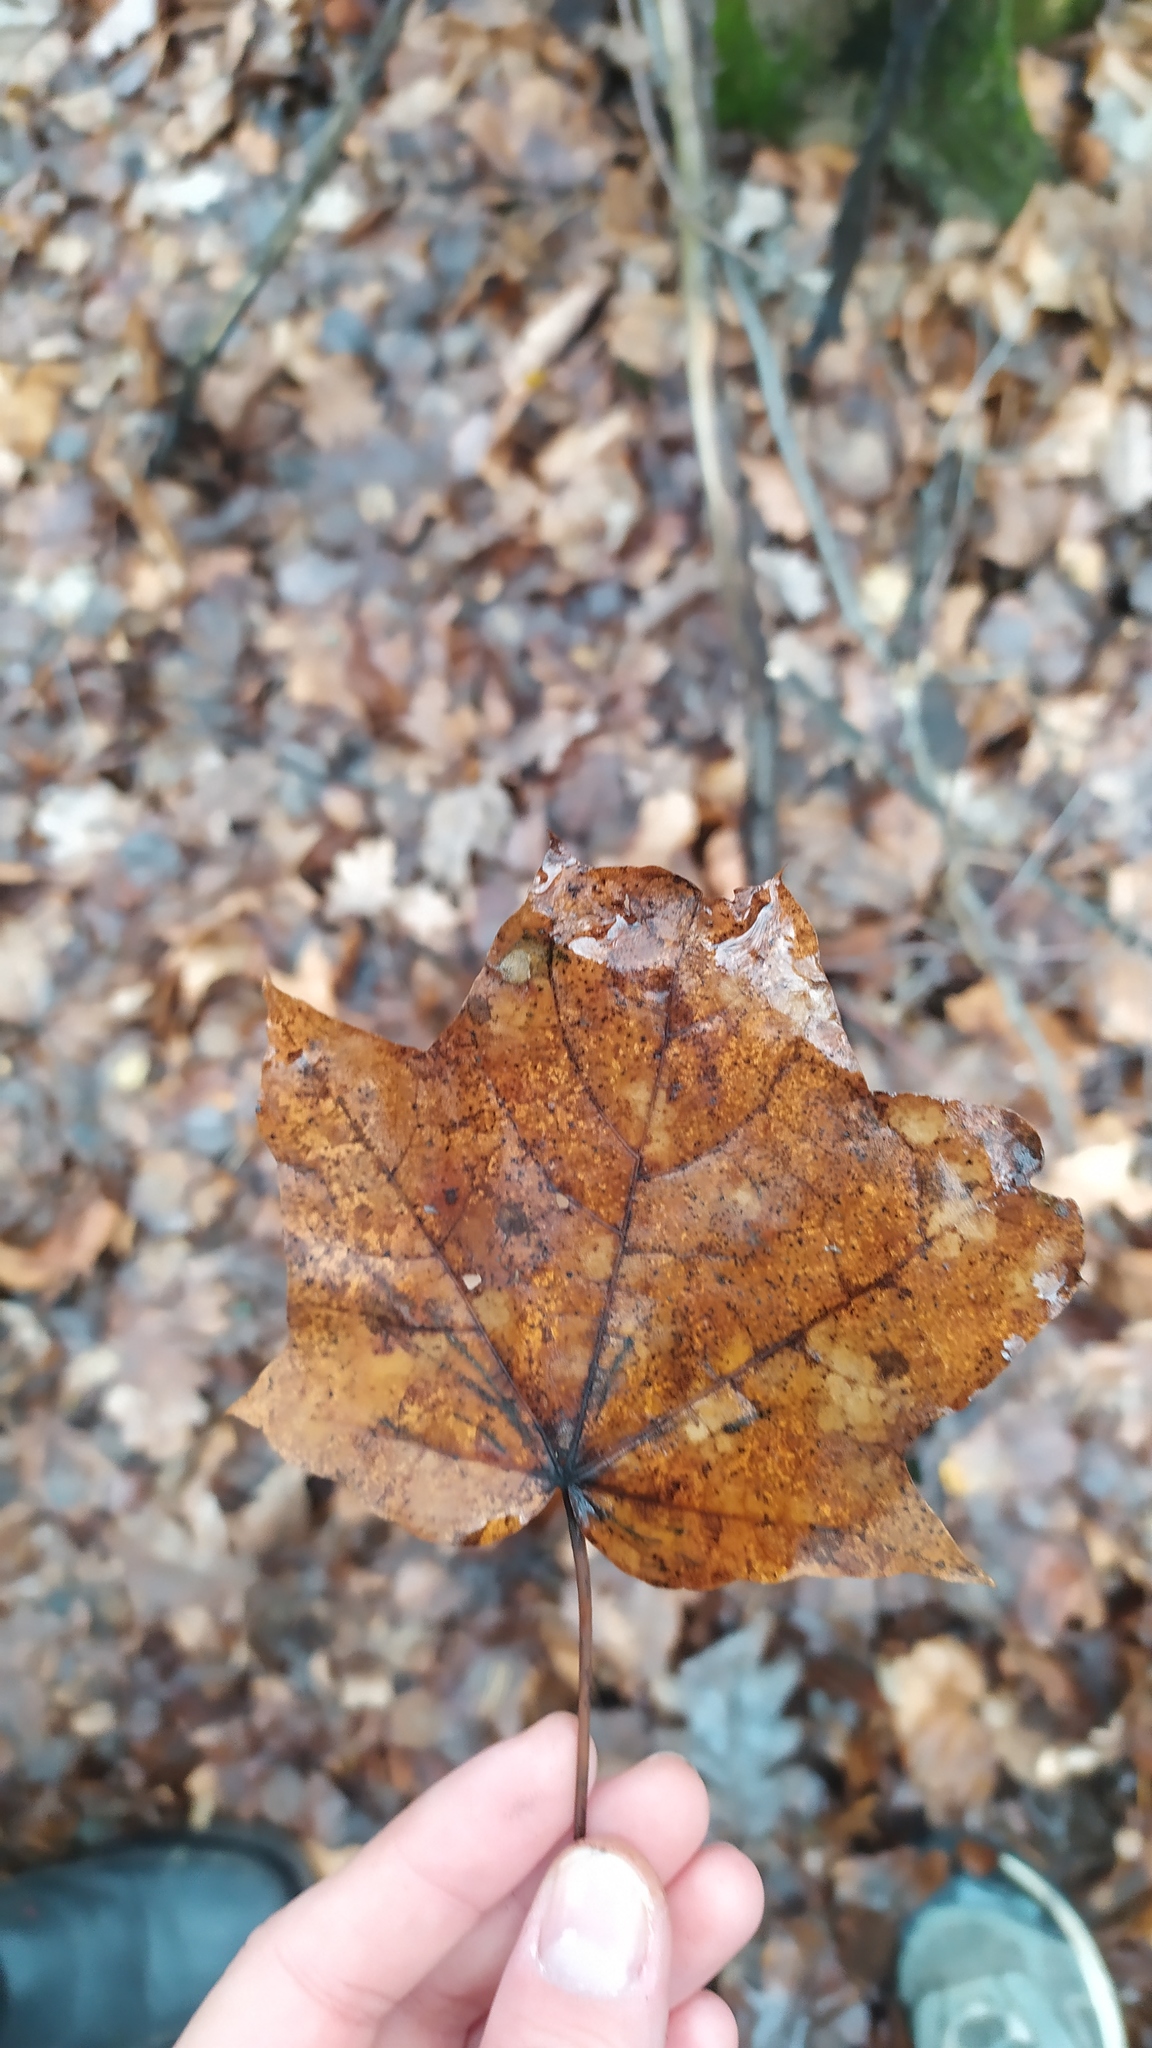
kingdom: Plantae
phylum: Tracheophyta
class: Magnoliopsida
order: Sapindales
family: Sapindaceae
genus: Acer
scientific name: Acer platanoides
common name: Norway maple
